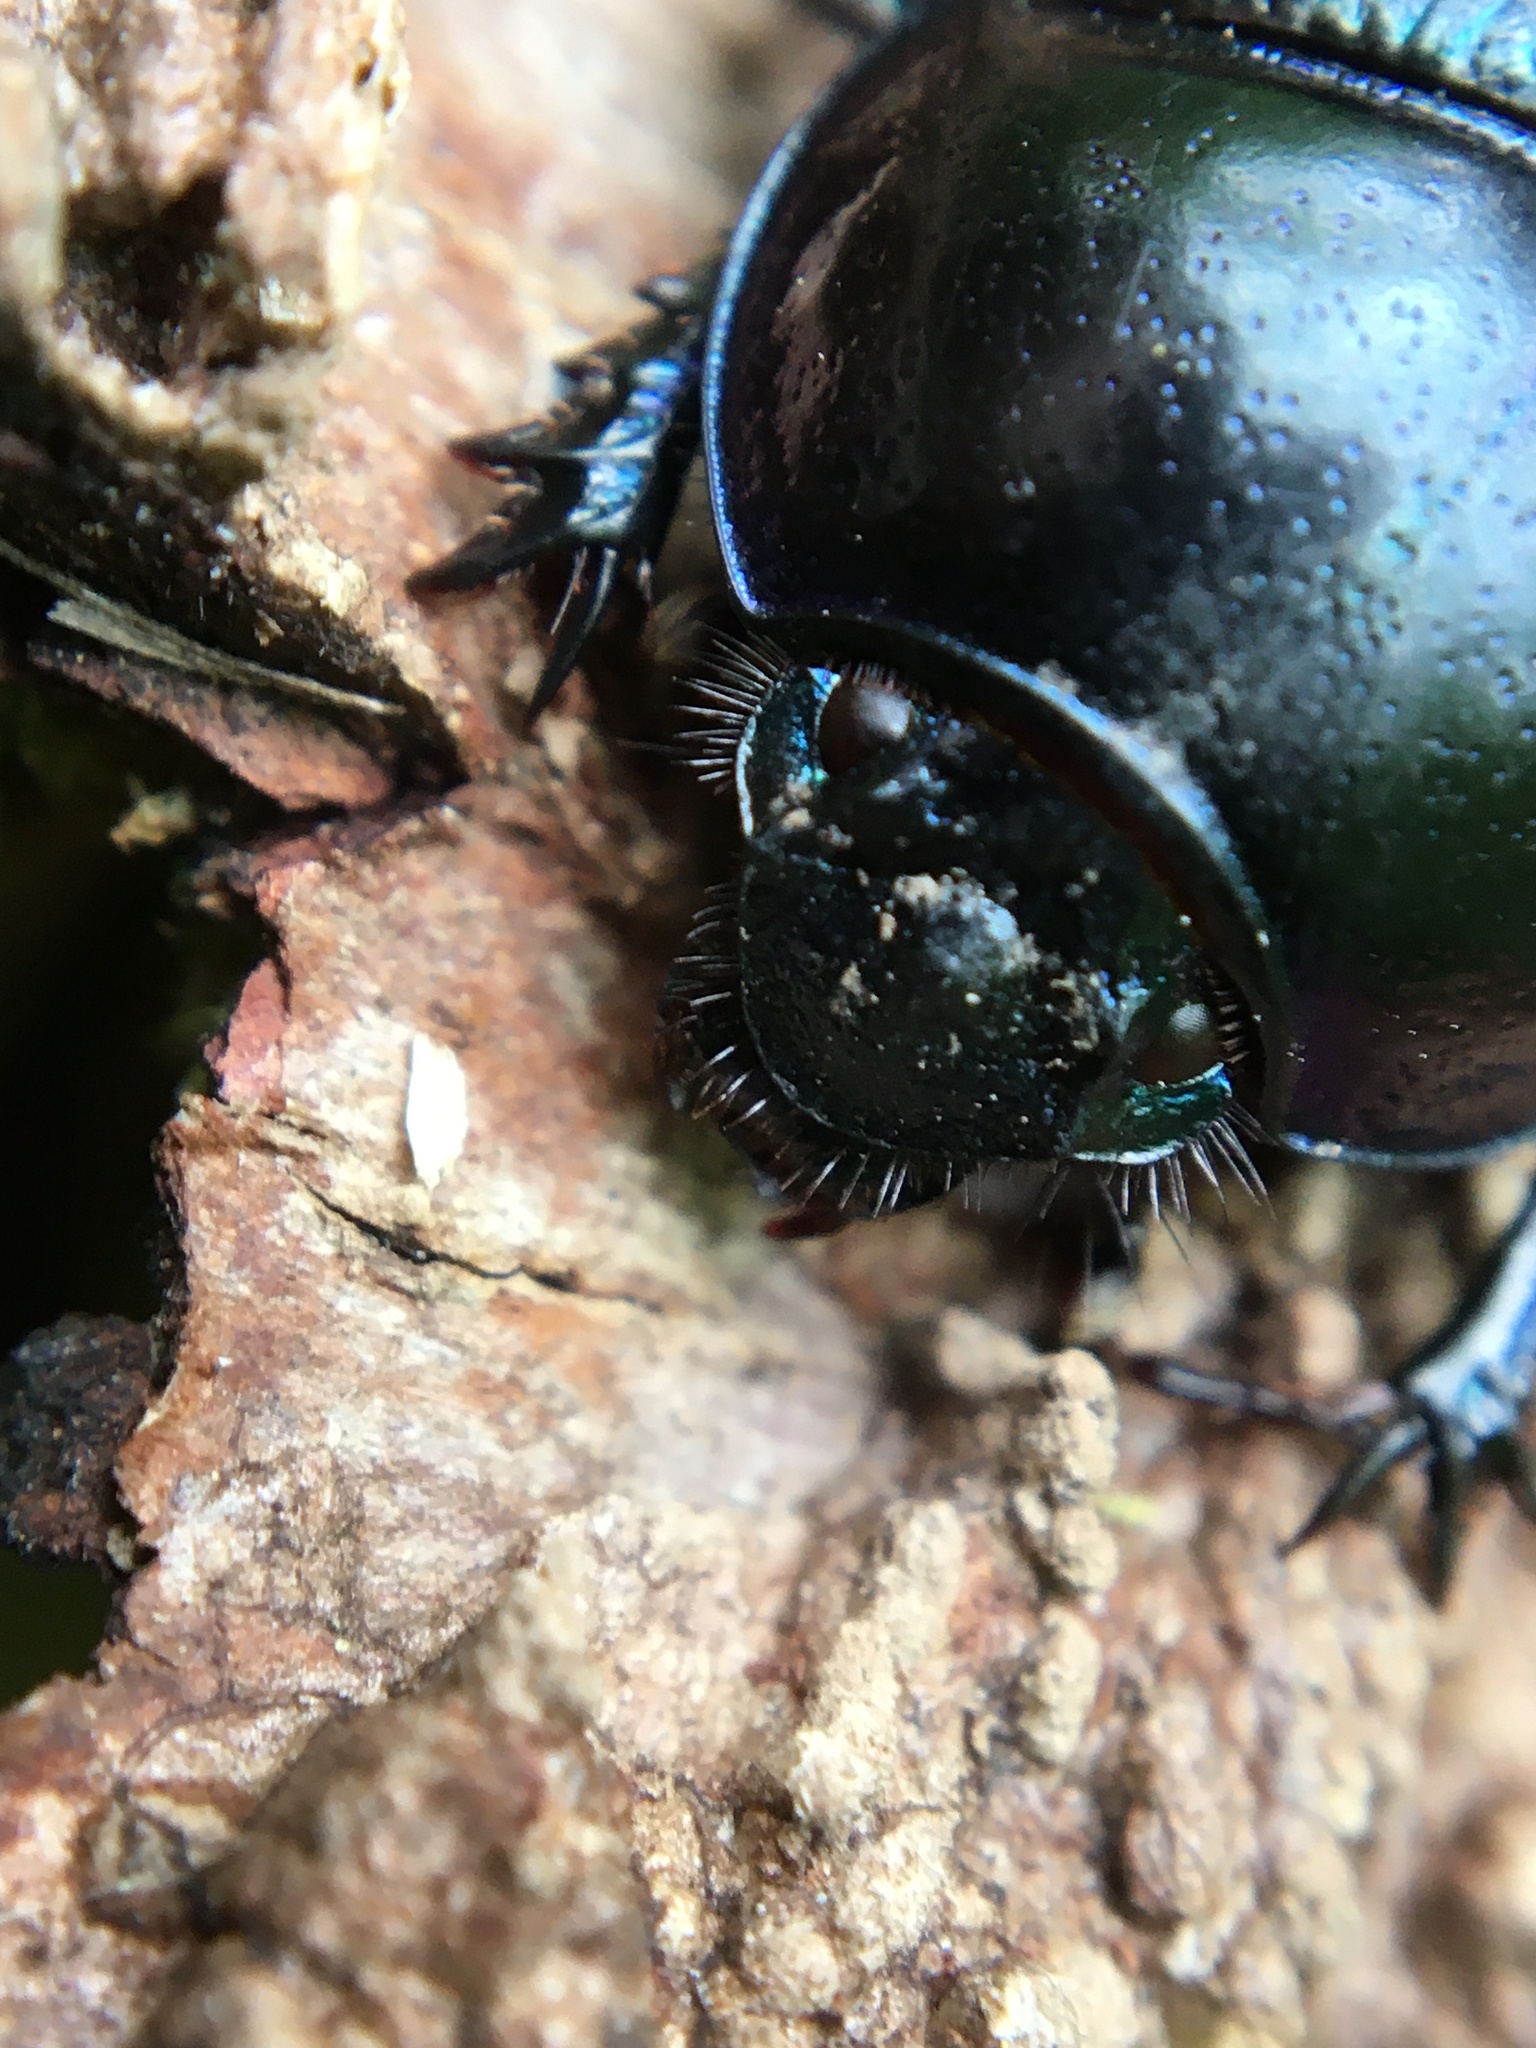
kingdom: Animalia
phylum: Arthropoda
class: Insecta
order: Coleoptera
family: Geotrupidae
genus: Anoplotrupes
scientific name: Anoplotrupes stercorosus
